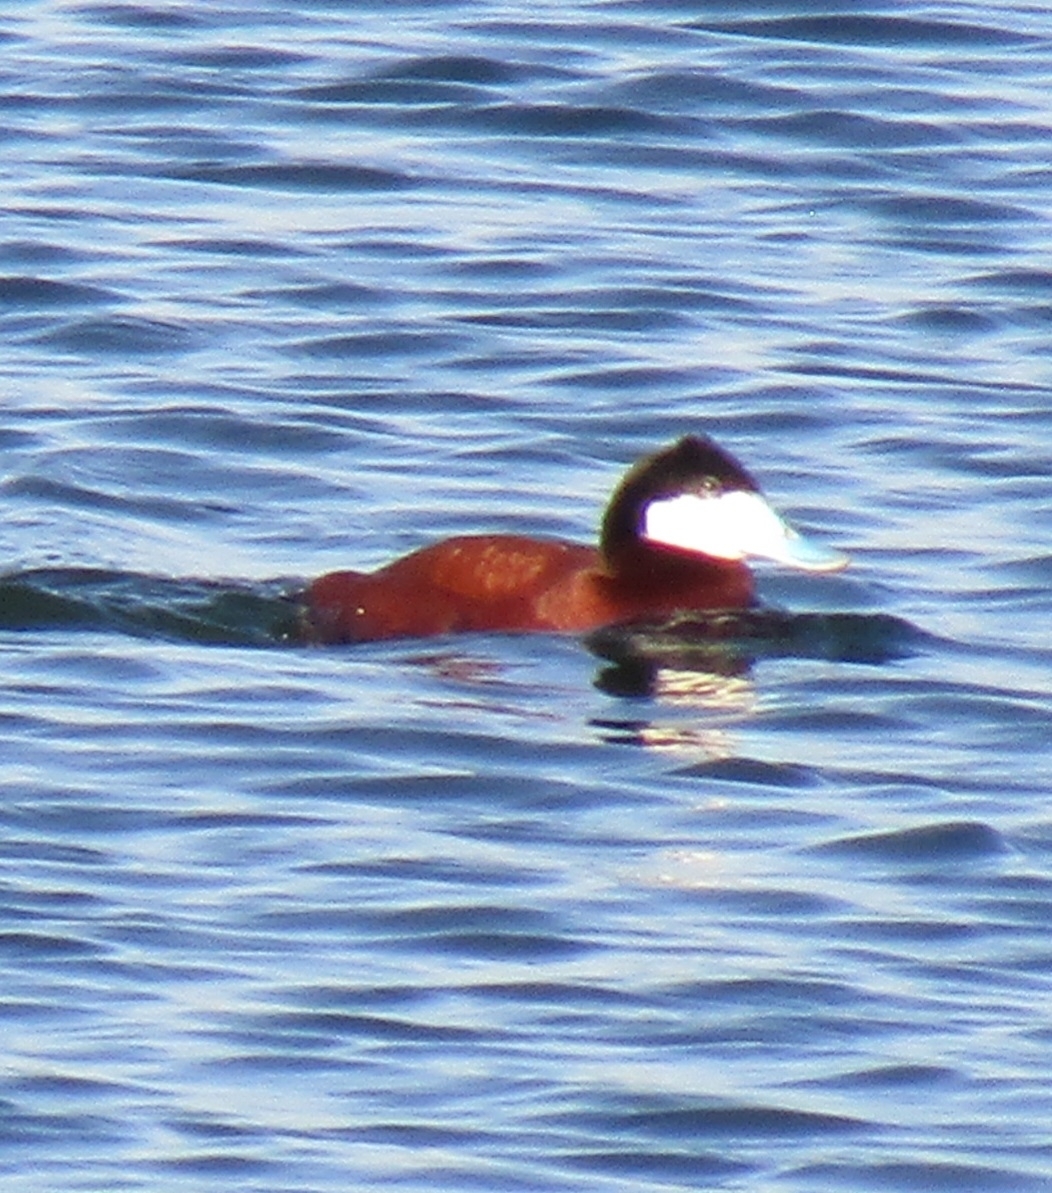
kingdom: Animalia
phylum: Chordata
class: Aves
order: Anseriformes
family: Anatidae
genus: Oxyura
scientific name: Oxyura jamaicensis
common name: Ruddy duck
